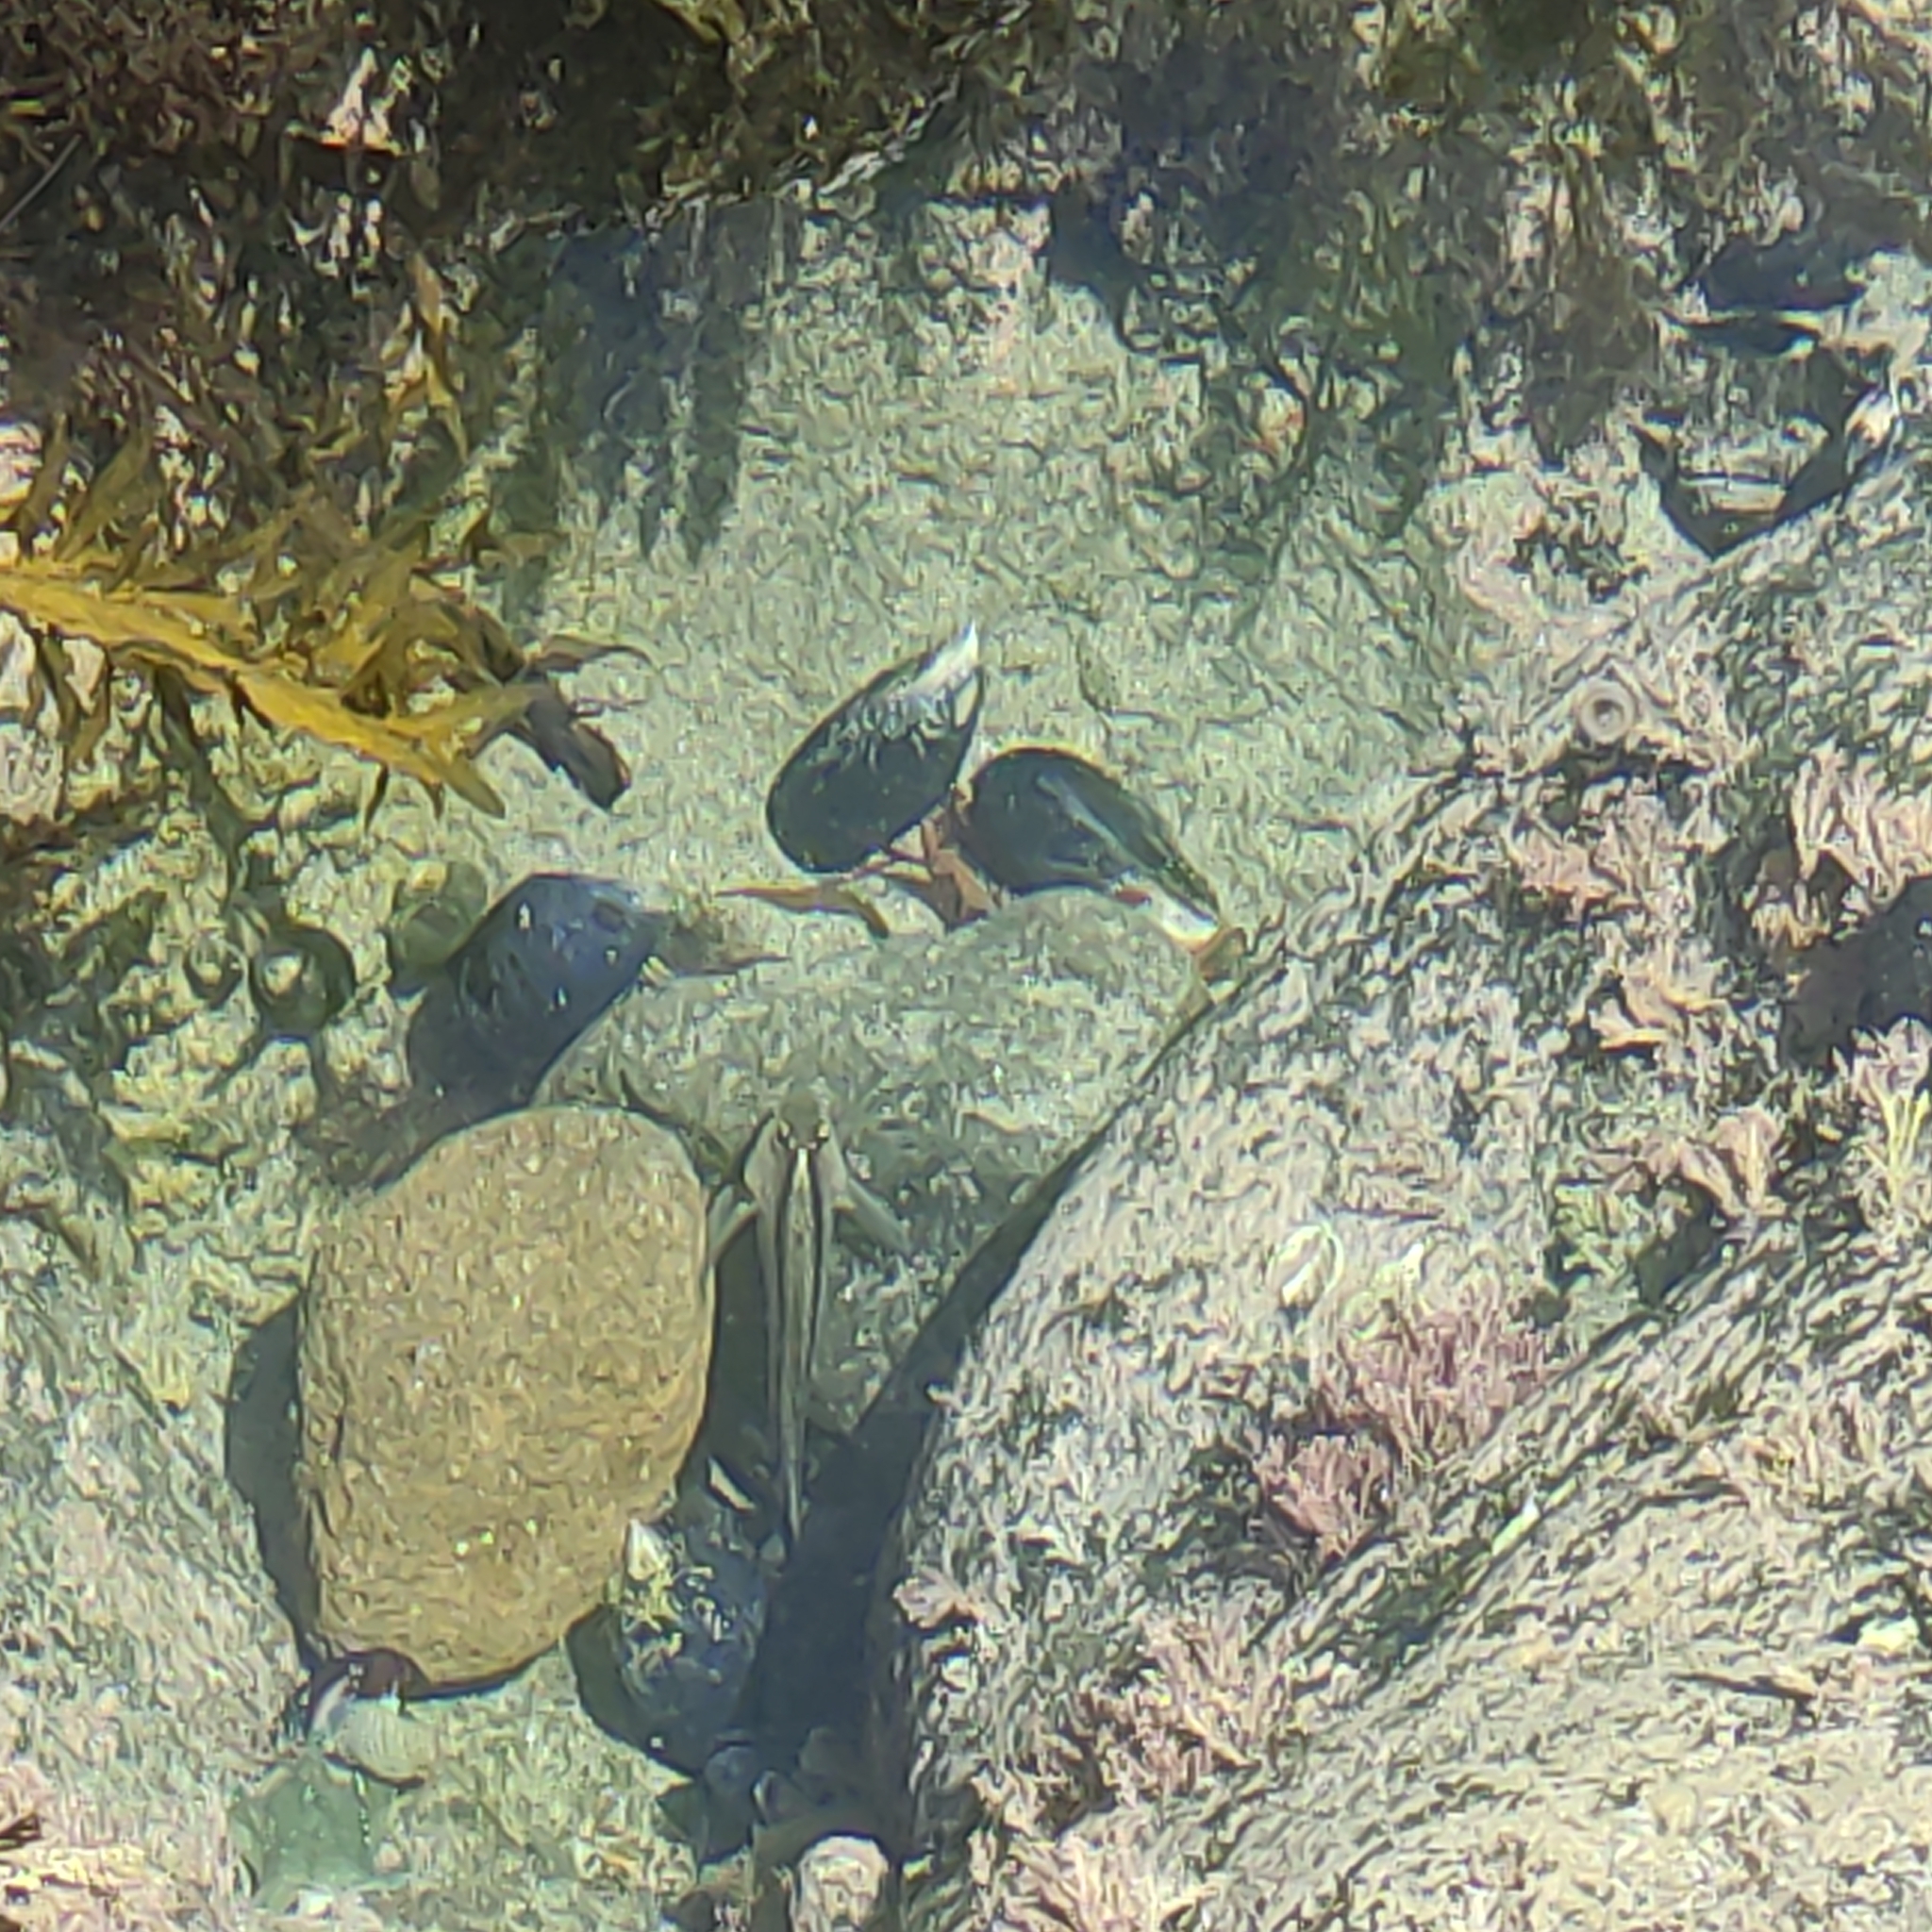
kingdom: Animalia
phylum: Chordata
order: Perciformes
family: Tripterygiidae
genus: Forsterygion
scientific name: Forsterygion lapillum
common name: Common triplefin
